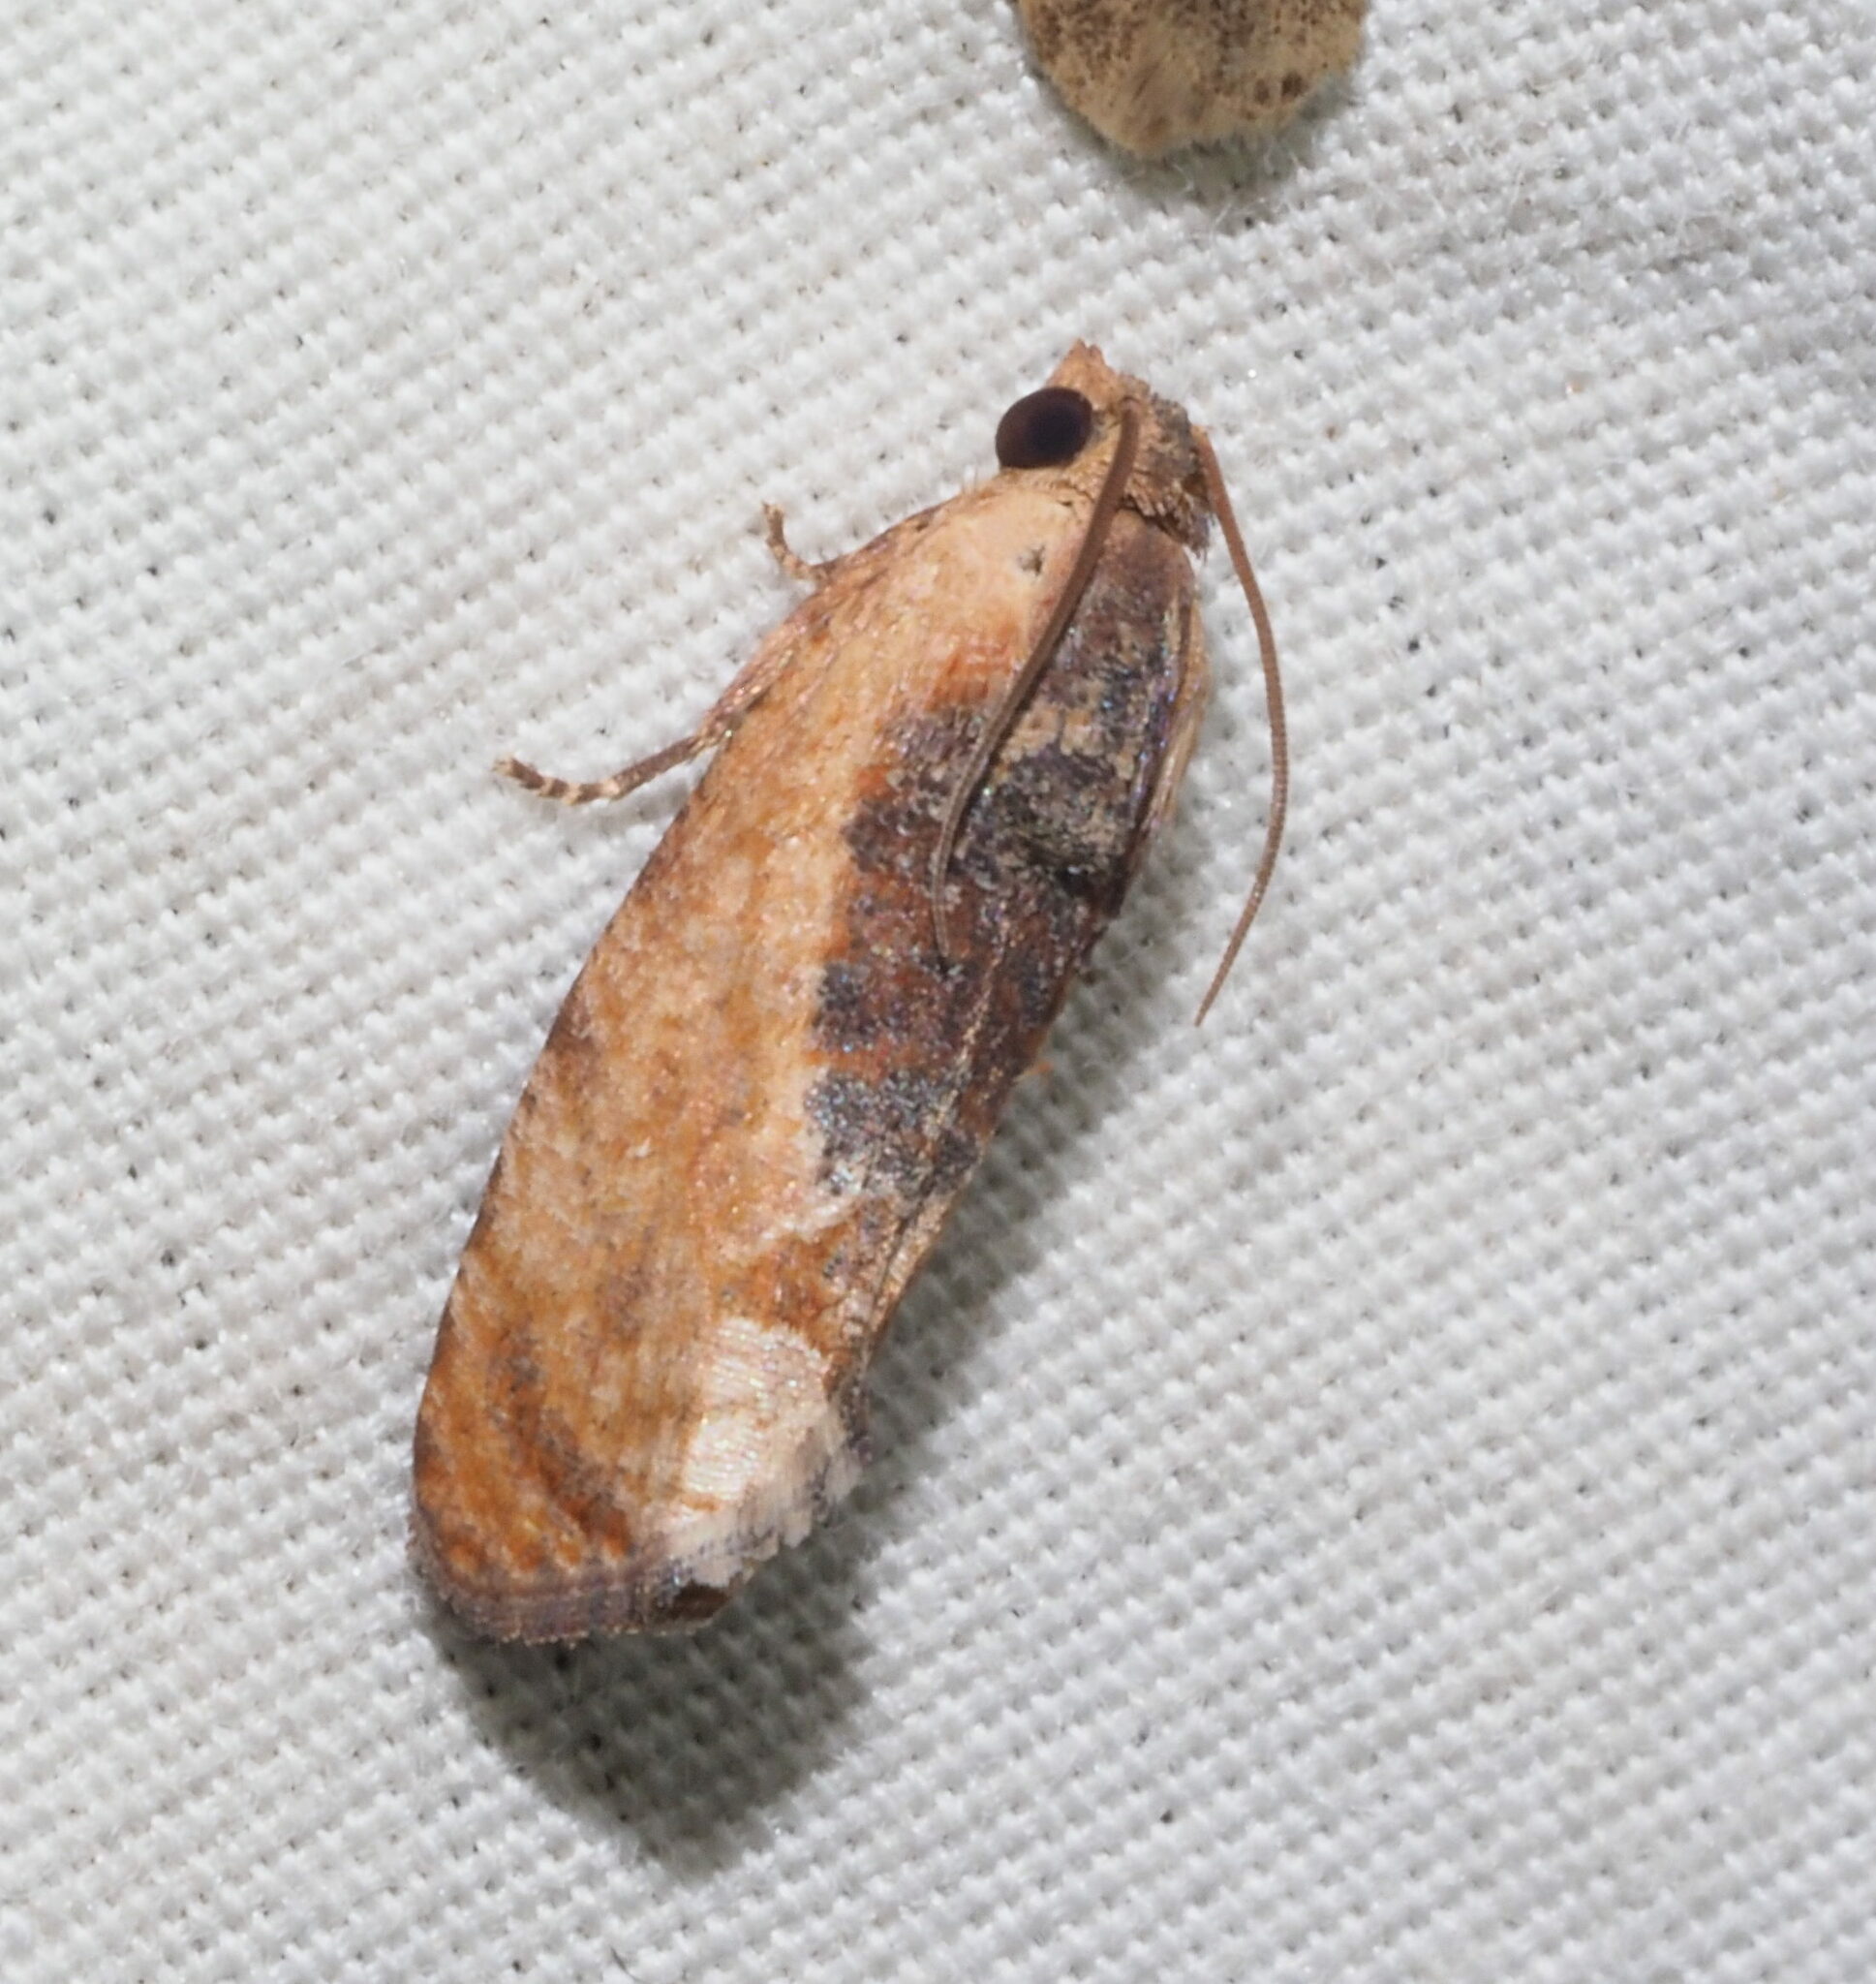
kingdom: Animalia
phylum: Arthropoda
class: Insecta
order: Lepidoptera
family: Tortricidae
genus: Cryptophlebia
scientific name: Cryptophlebia ombrodelta
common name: Litchi fruit moth
